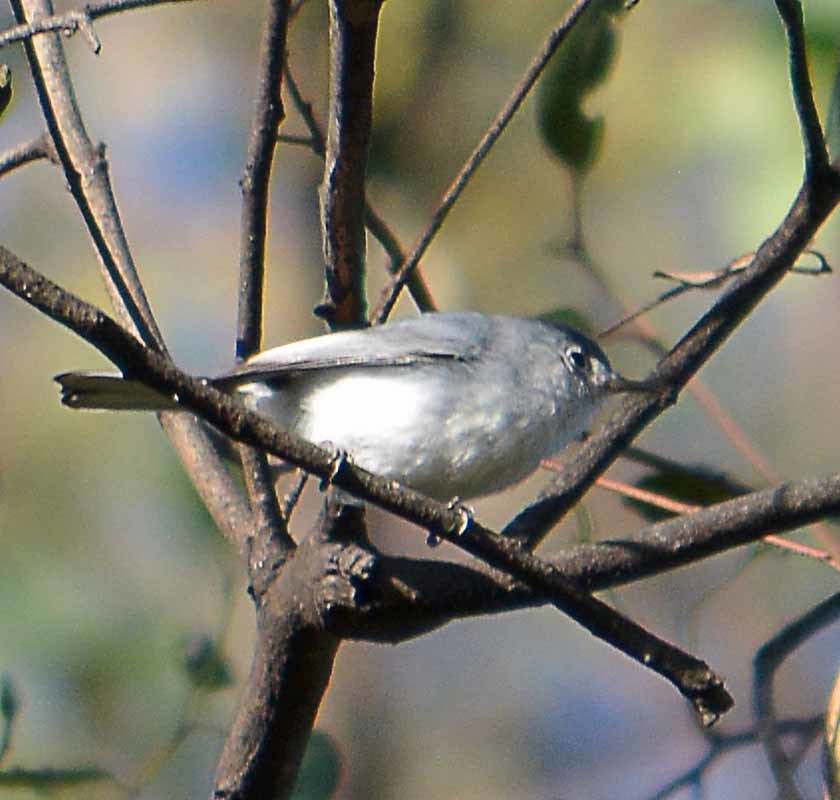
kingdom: Animalia
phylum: Chordata
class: Aves
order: Passeriformes
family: Polioptilidae
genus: Polioptila
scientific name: Polioptila caerulea
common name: Blue-gray gnatcatcher
